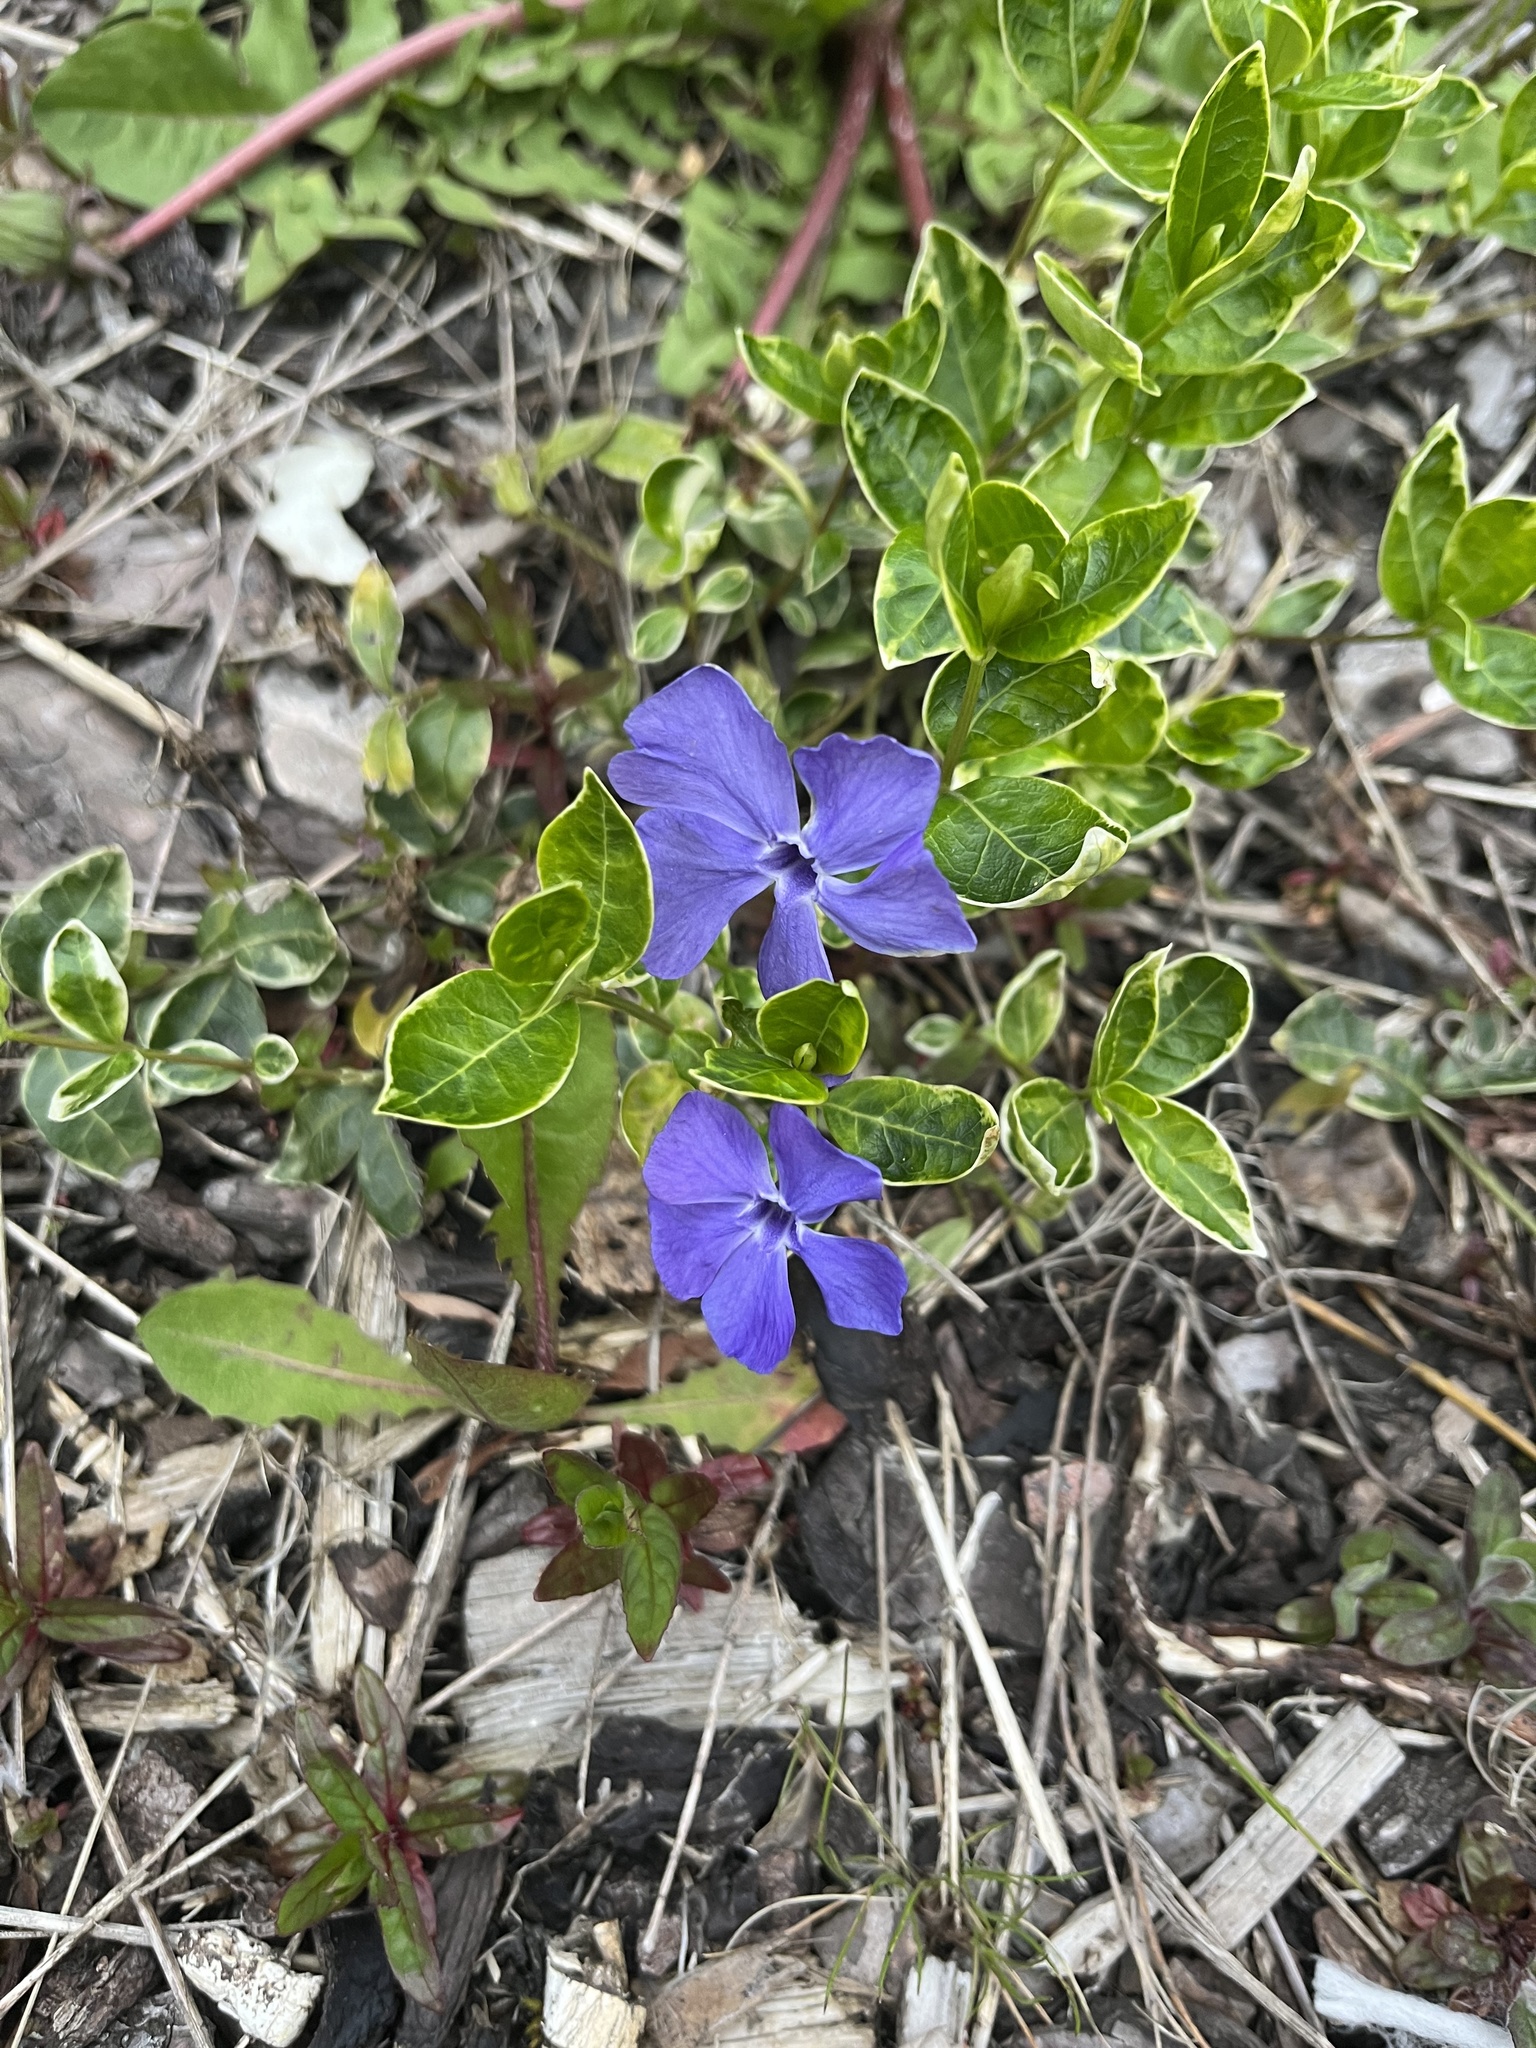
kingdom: Plantae
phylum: Tracheophyta
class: Magnoliopsida
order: Gentianales
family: Apocynaceae
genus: Vinca
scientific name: Vinca minor
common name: Lesser periwinkle
